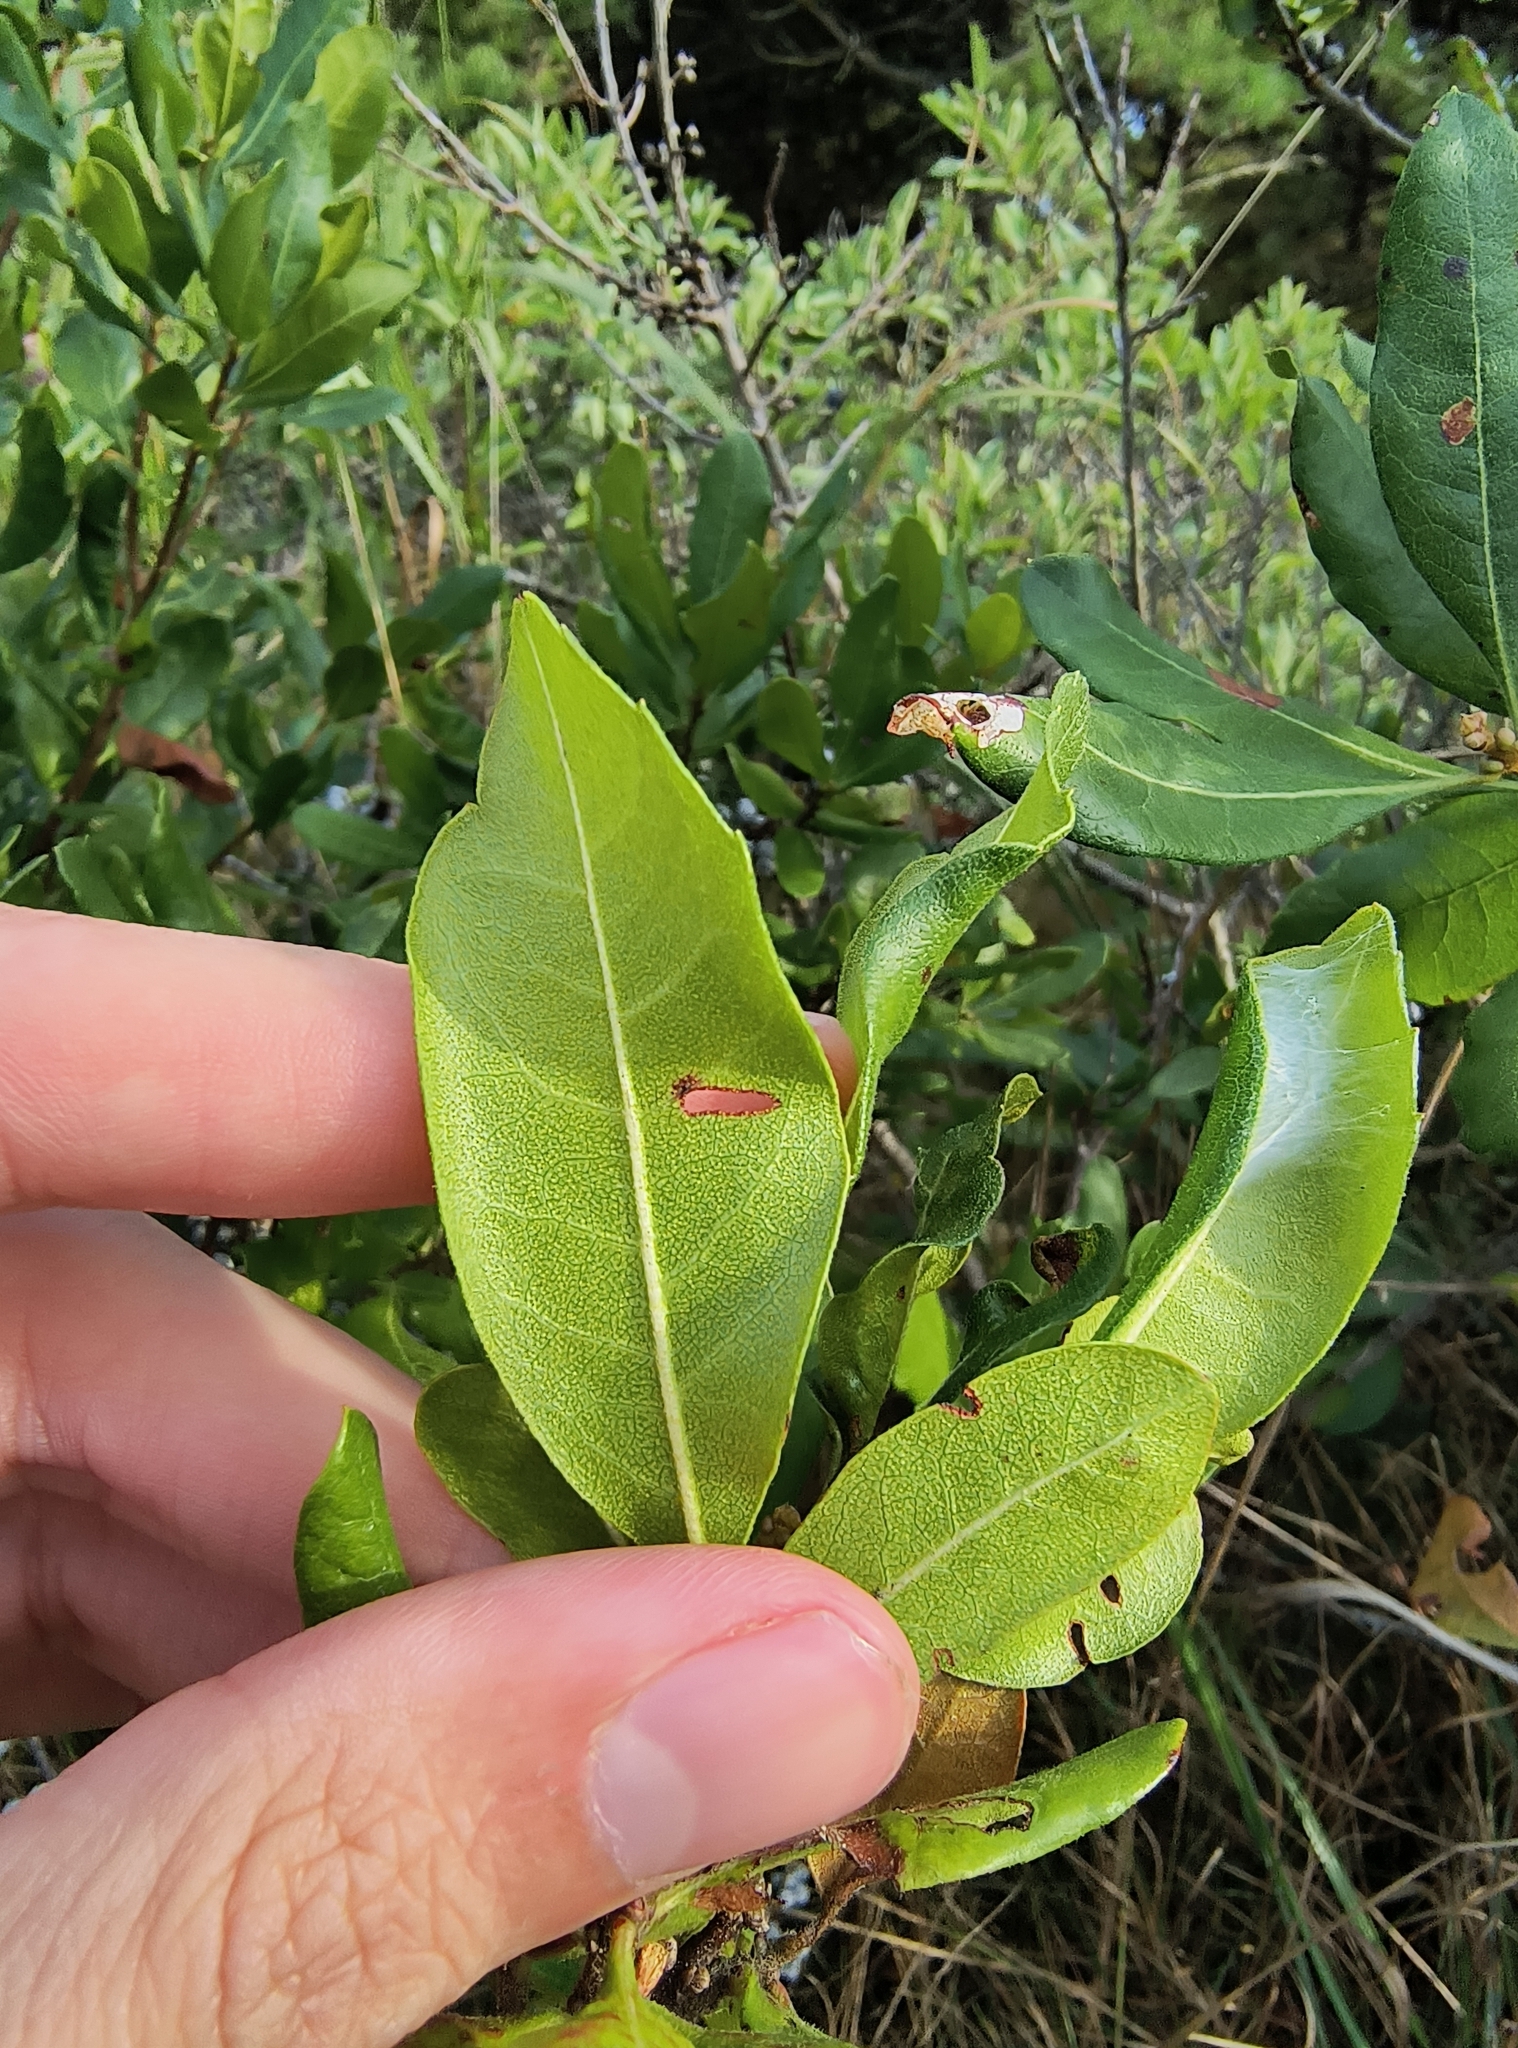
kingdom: Plantae
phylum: Tracheophyta
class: Magnoliopsida
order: Fagales
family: Myricaceae
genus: Morella
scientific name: Morella pensylvanica
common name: Northern bayberry
